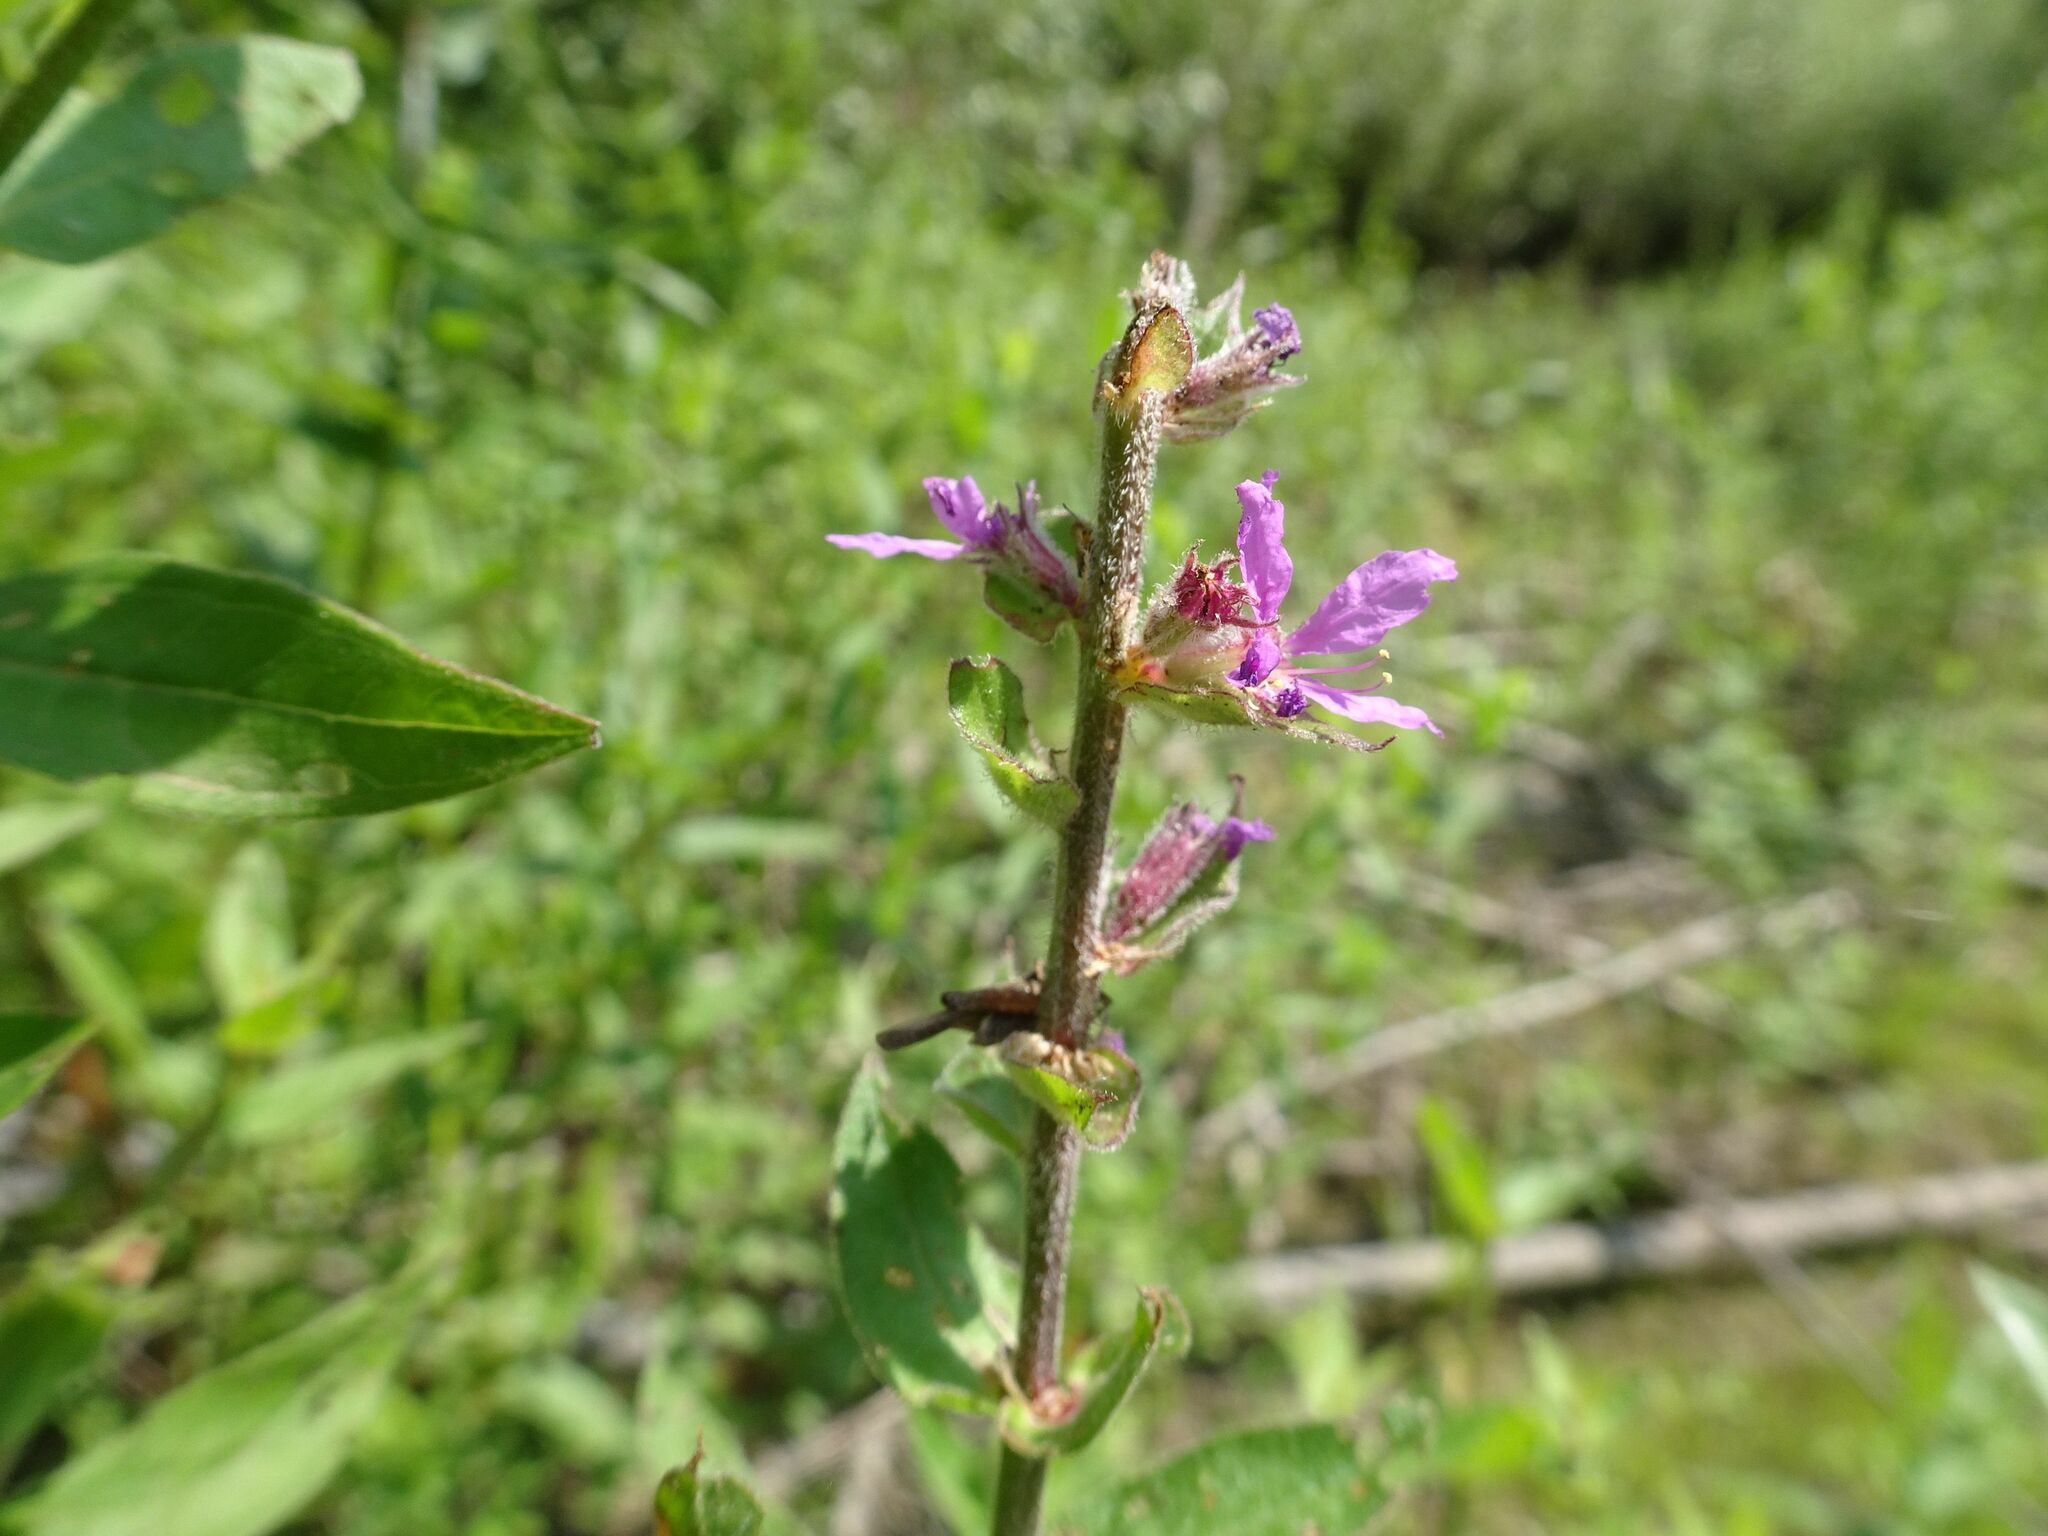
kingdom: Plantae
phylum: Tracheophyta
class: Magnoliopsida
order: Myrtales
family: Lythraceae
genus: Lythrum
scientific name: Lythrum salicaria
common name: Purple loosestrife
